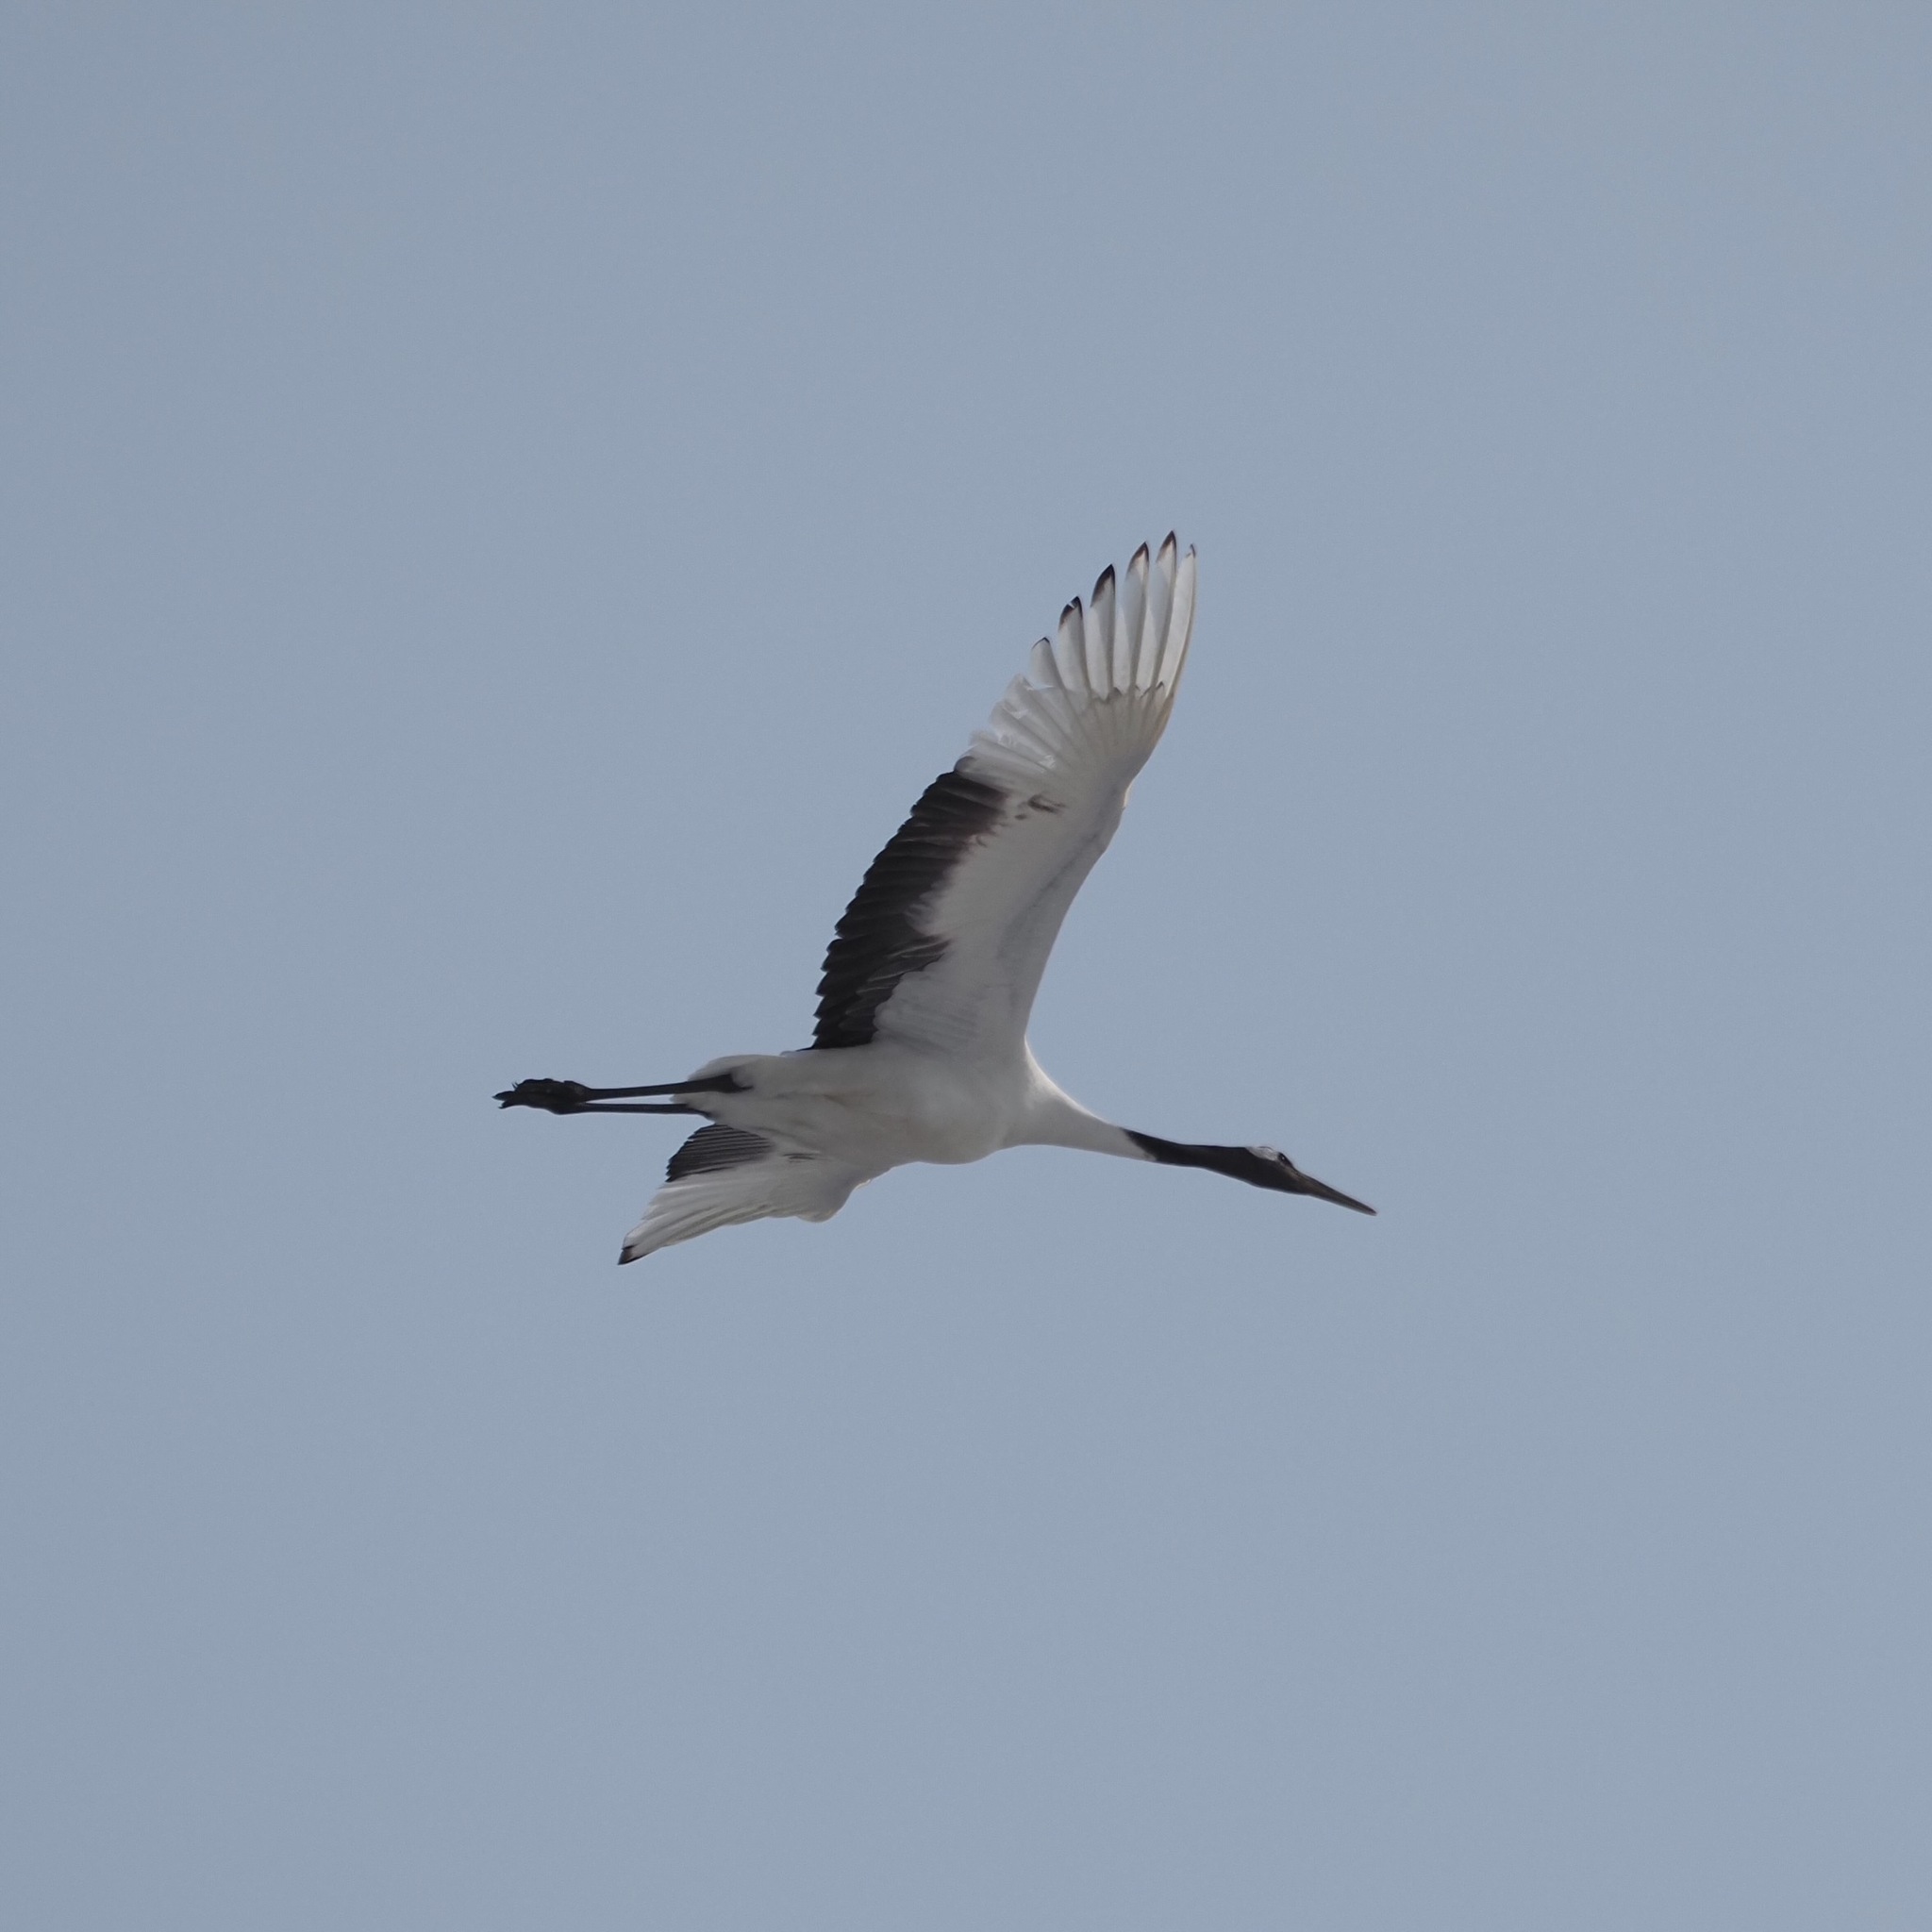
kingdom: Animalia
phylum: Chordata
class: Aves
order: Gruiformes
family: Gruidae
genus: Grus
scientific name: Grus japonensis
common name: Red-crowned crane
